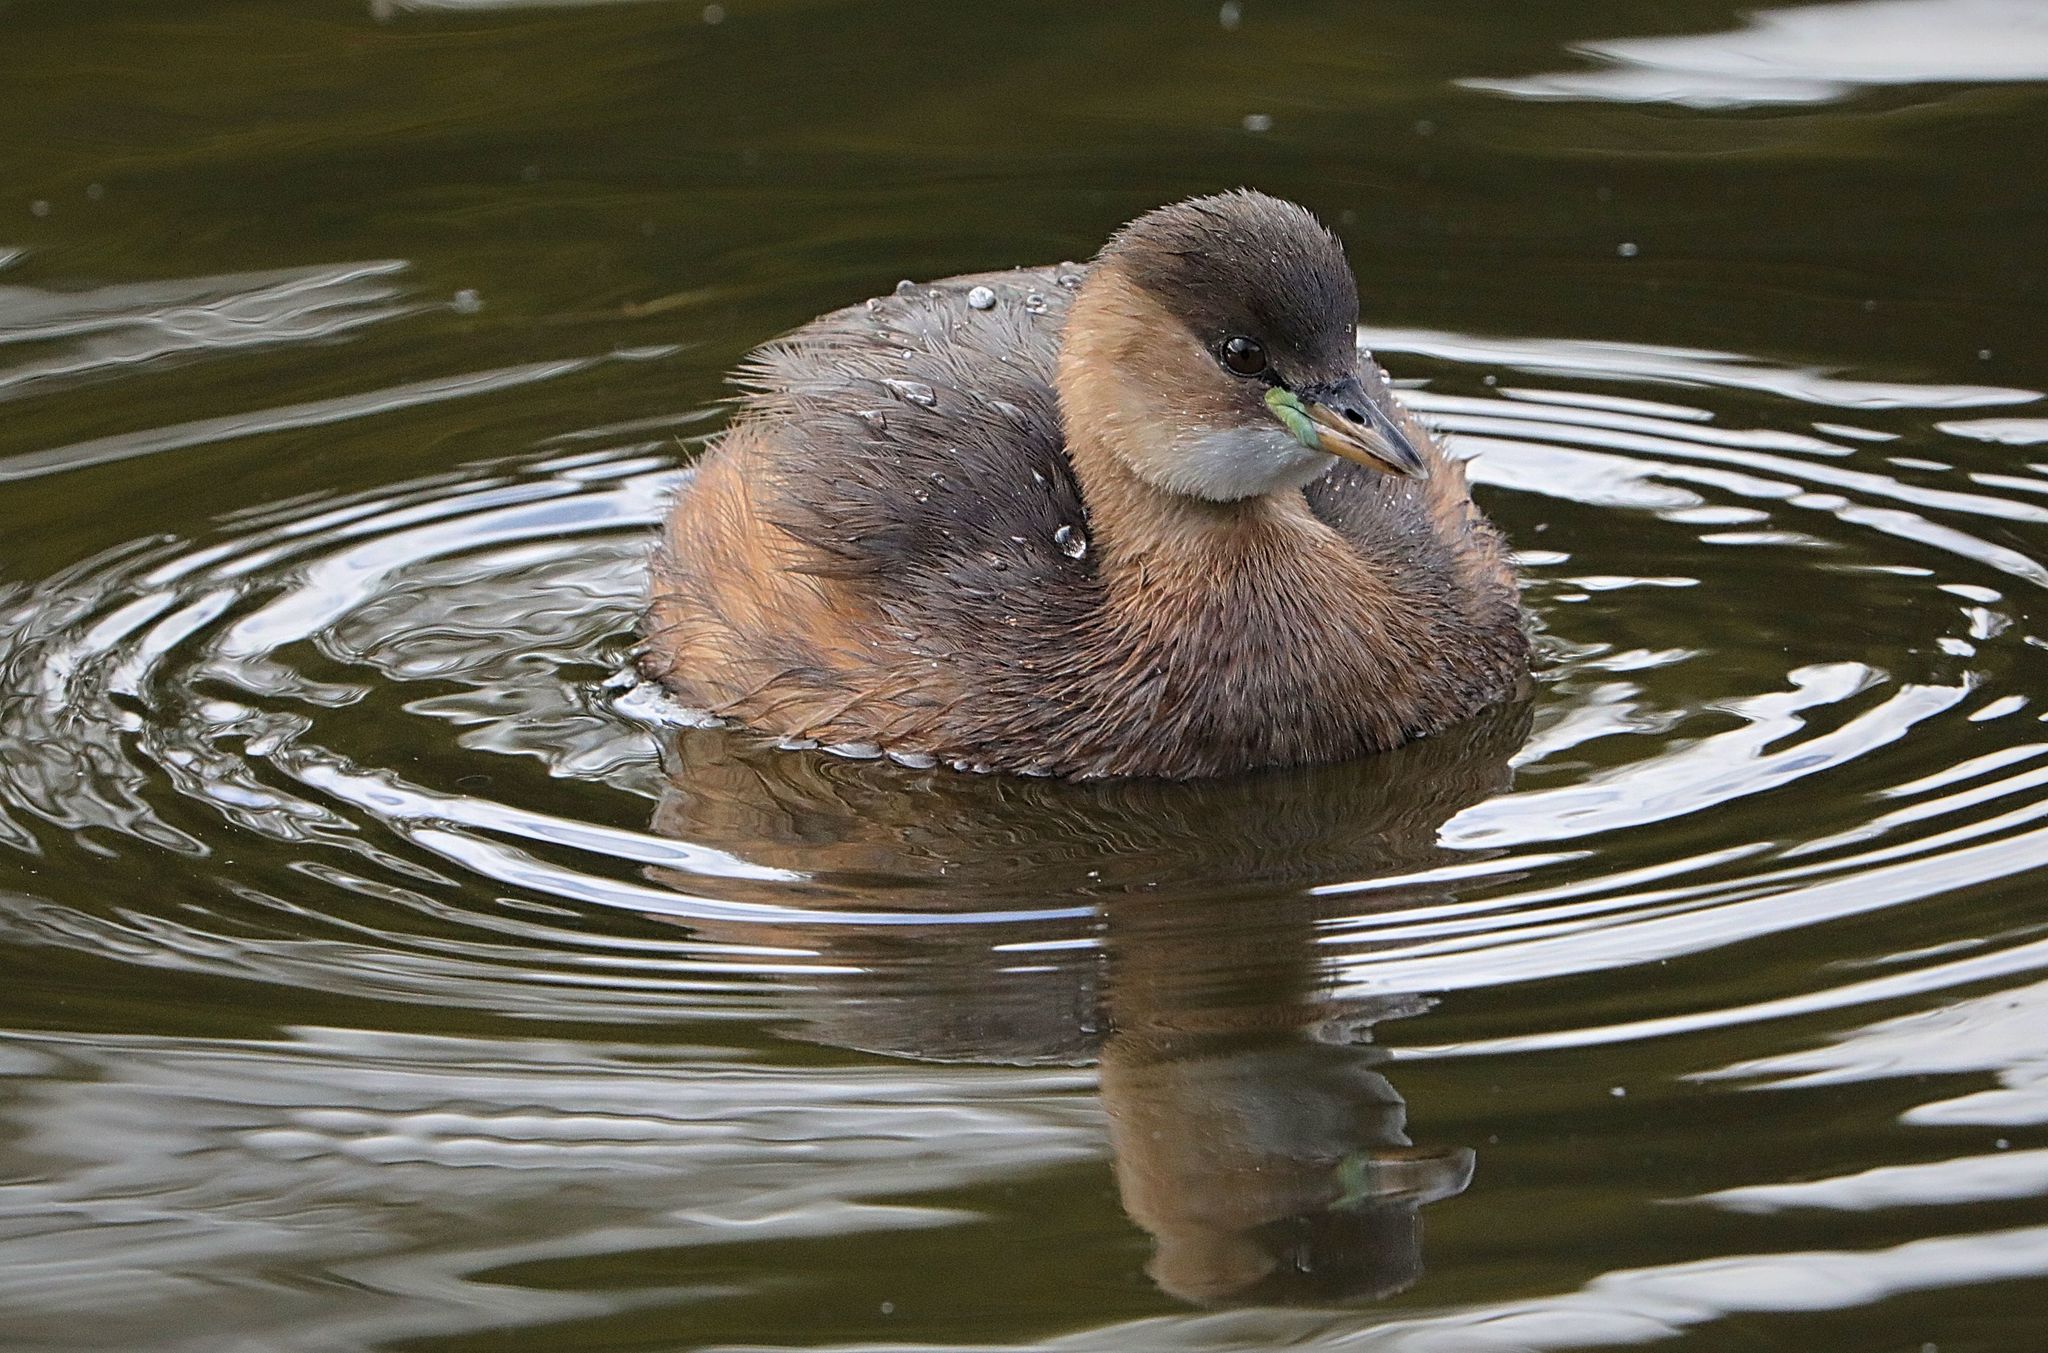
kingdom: Animalia
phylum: Chordata
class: Aves
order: Podicipediformes
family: Podicipedidae
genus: Tachybaptus
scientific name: Tachybaptus ruficollis
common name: Little grebe
